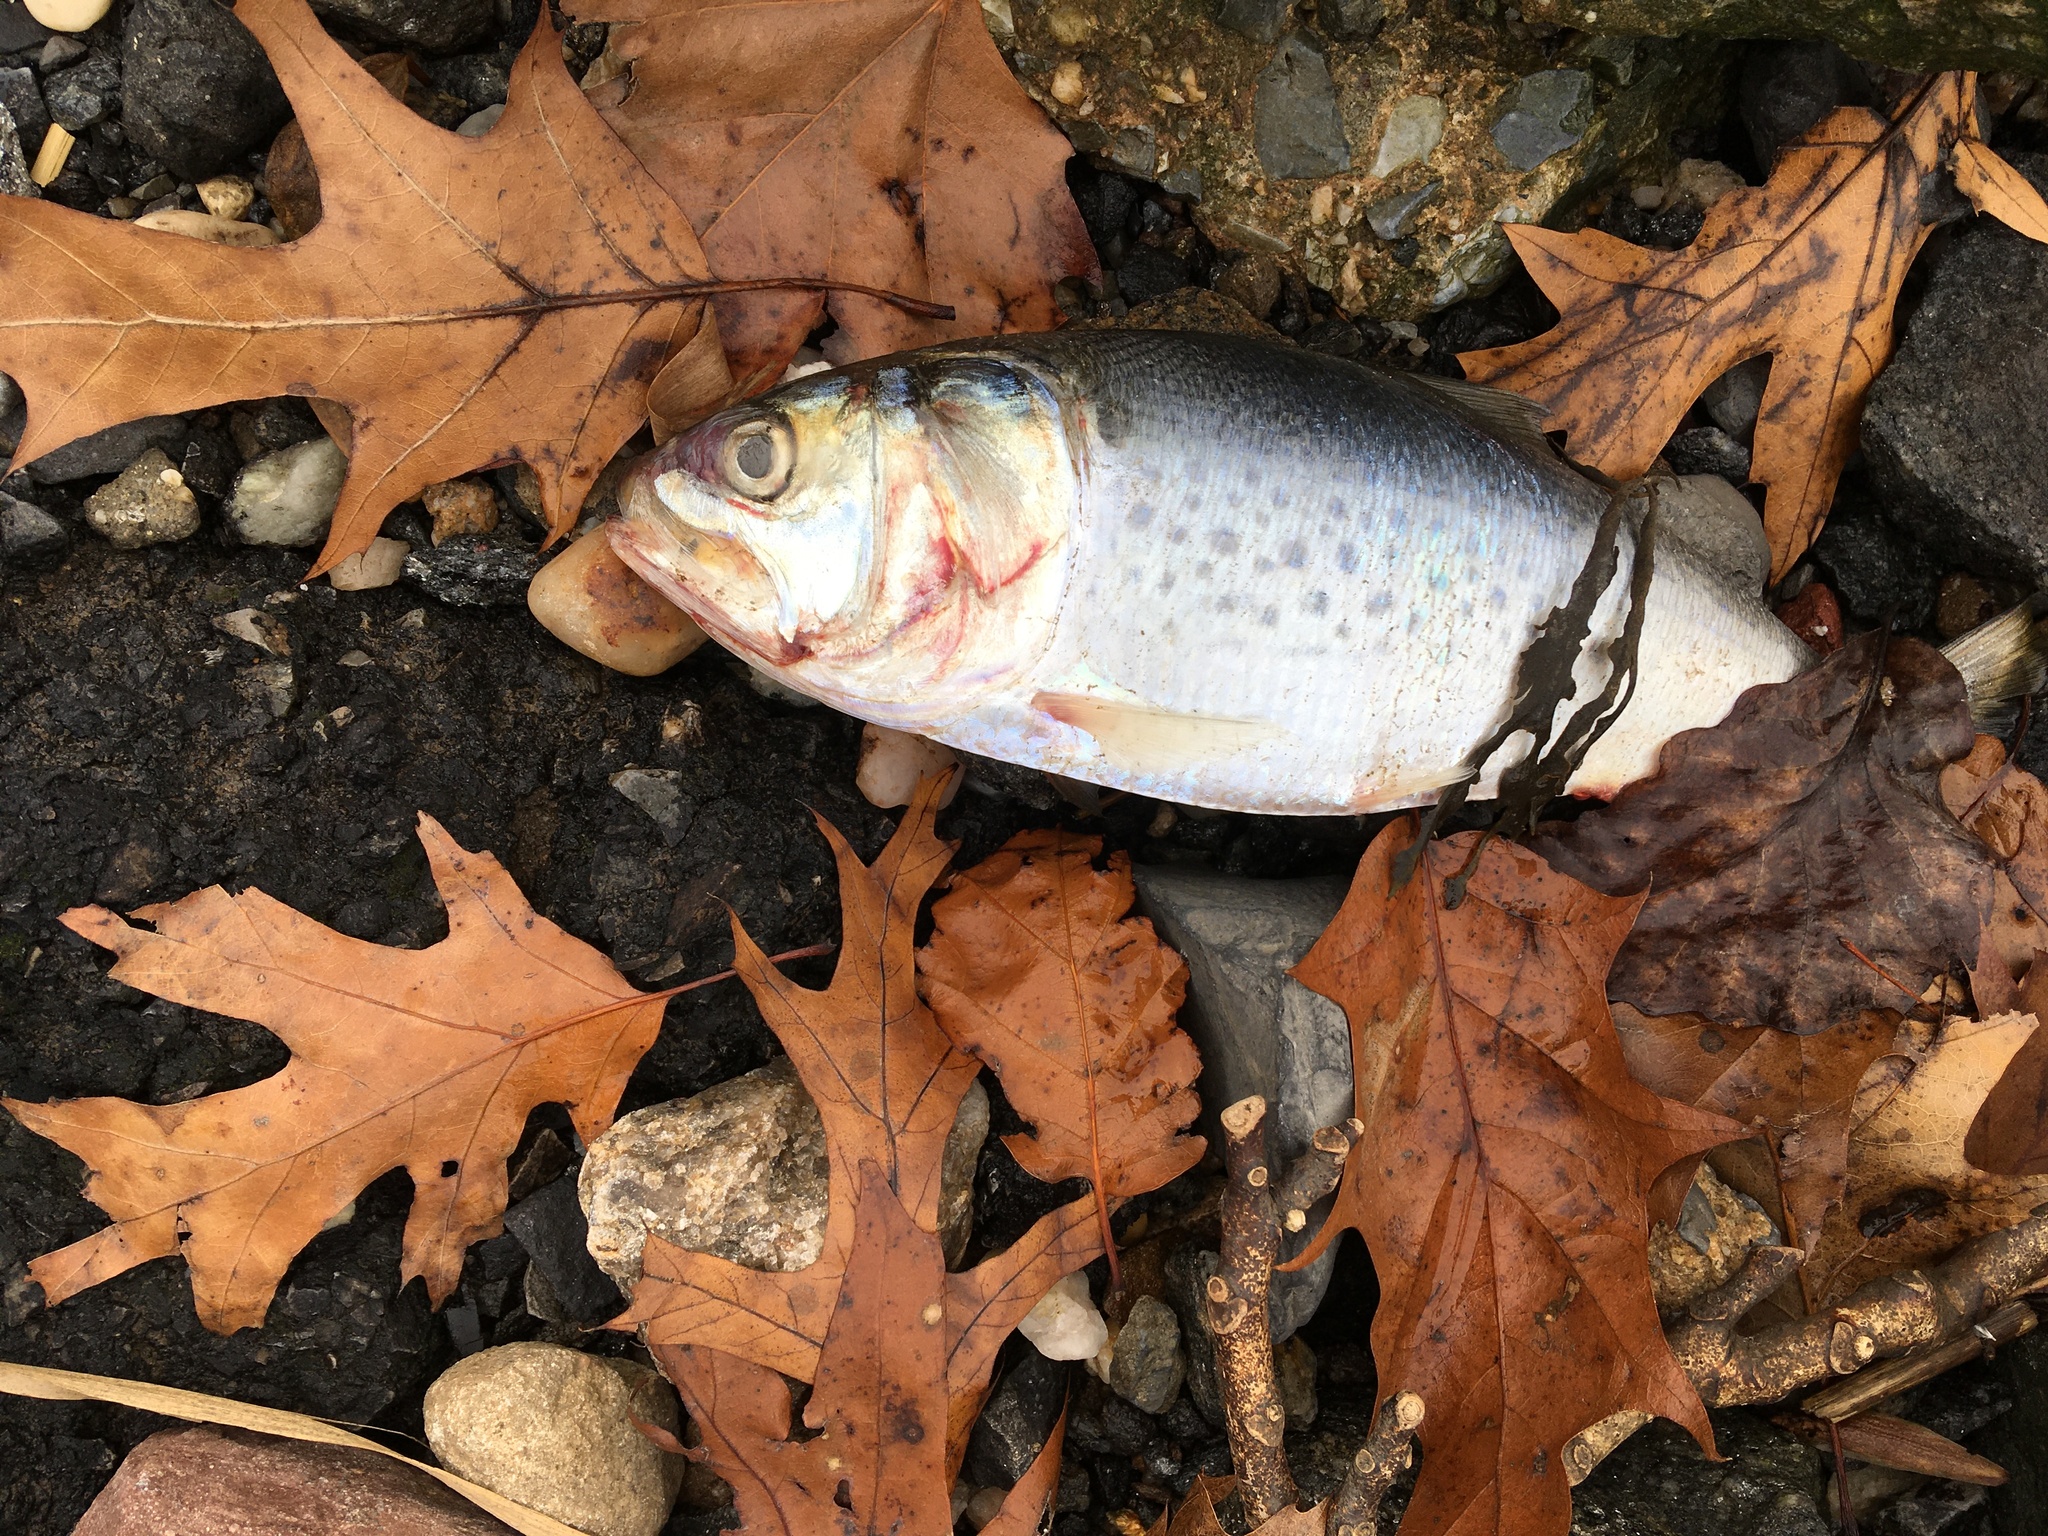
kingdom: Animalia
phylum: Chordata
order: Clupeiformes
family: Clupeidae
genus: Brevoortia
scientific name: Brevoortia tyrannus
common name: Atlantic menhaden
